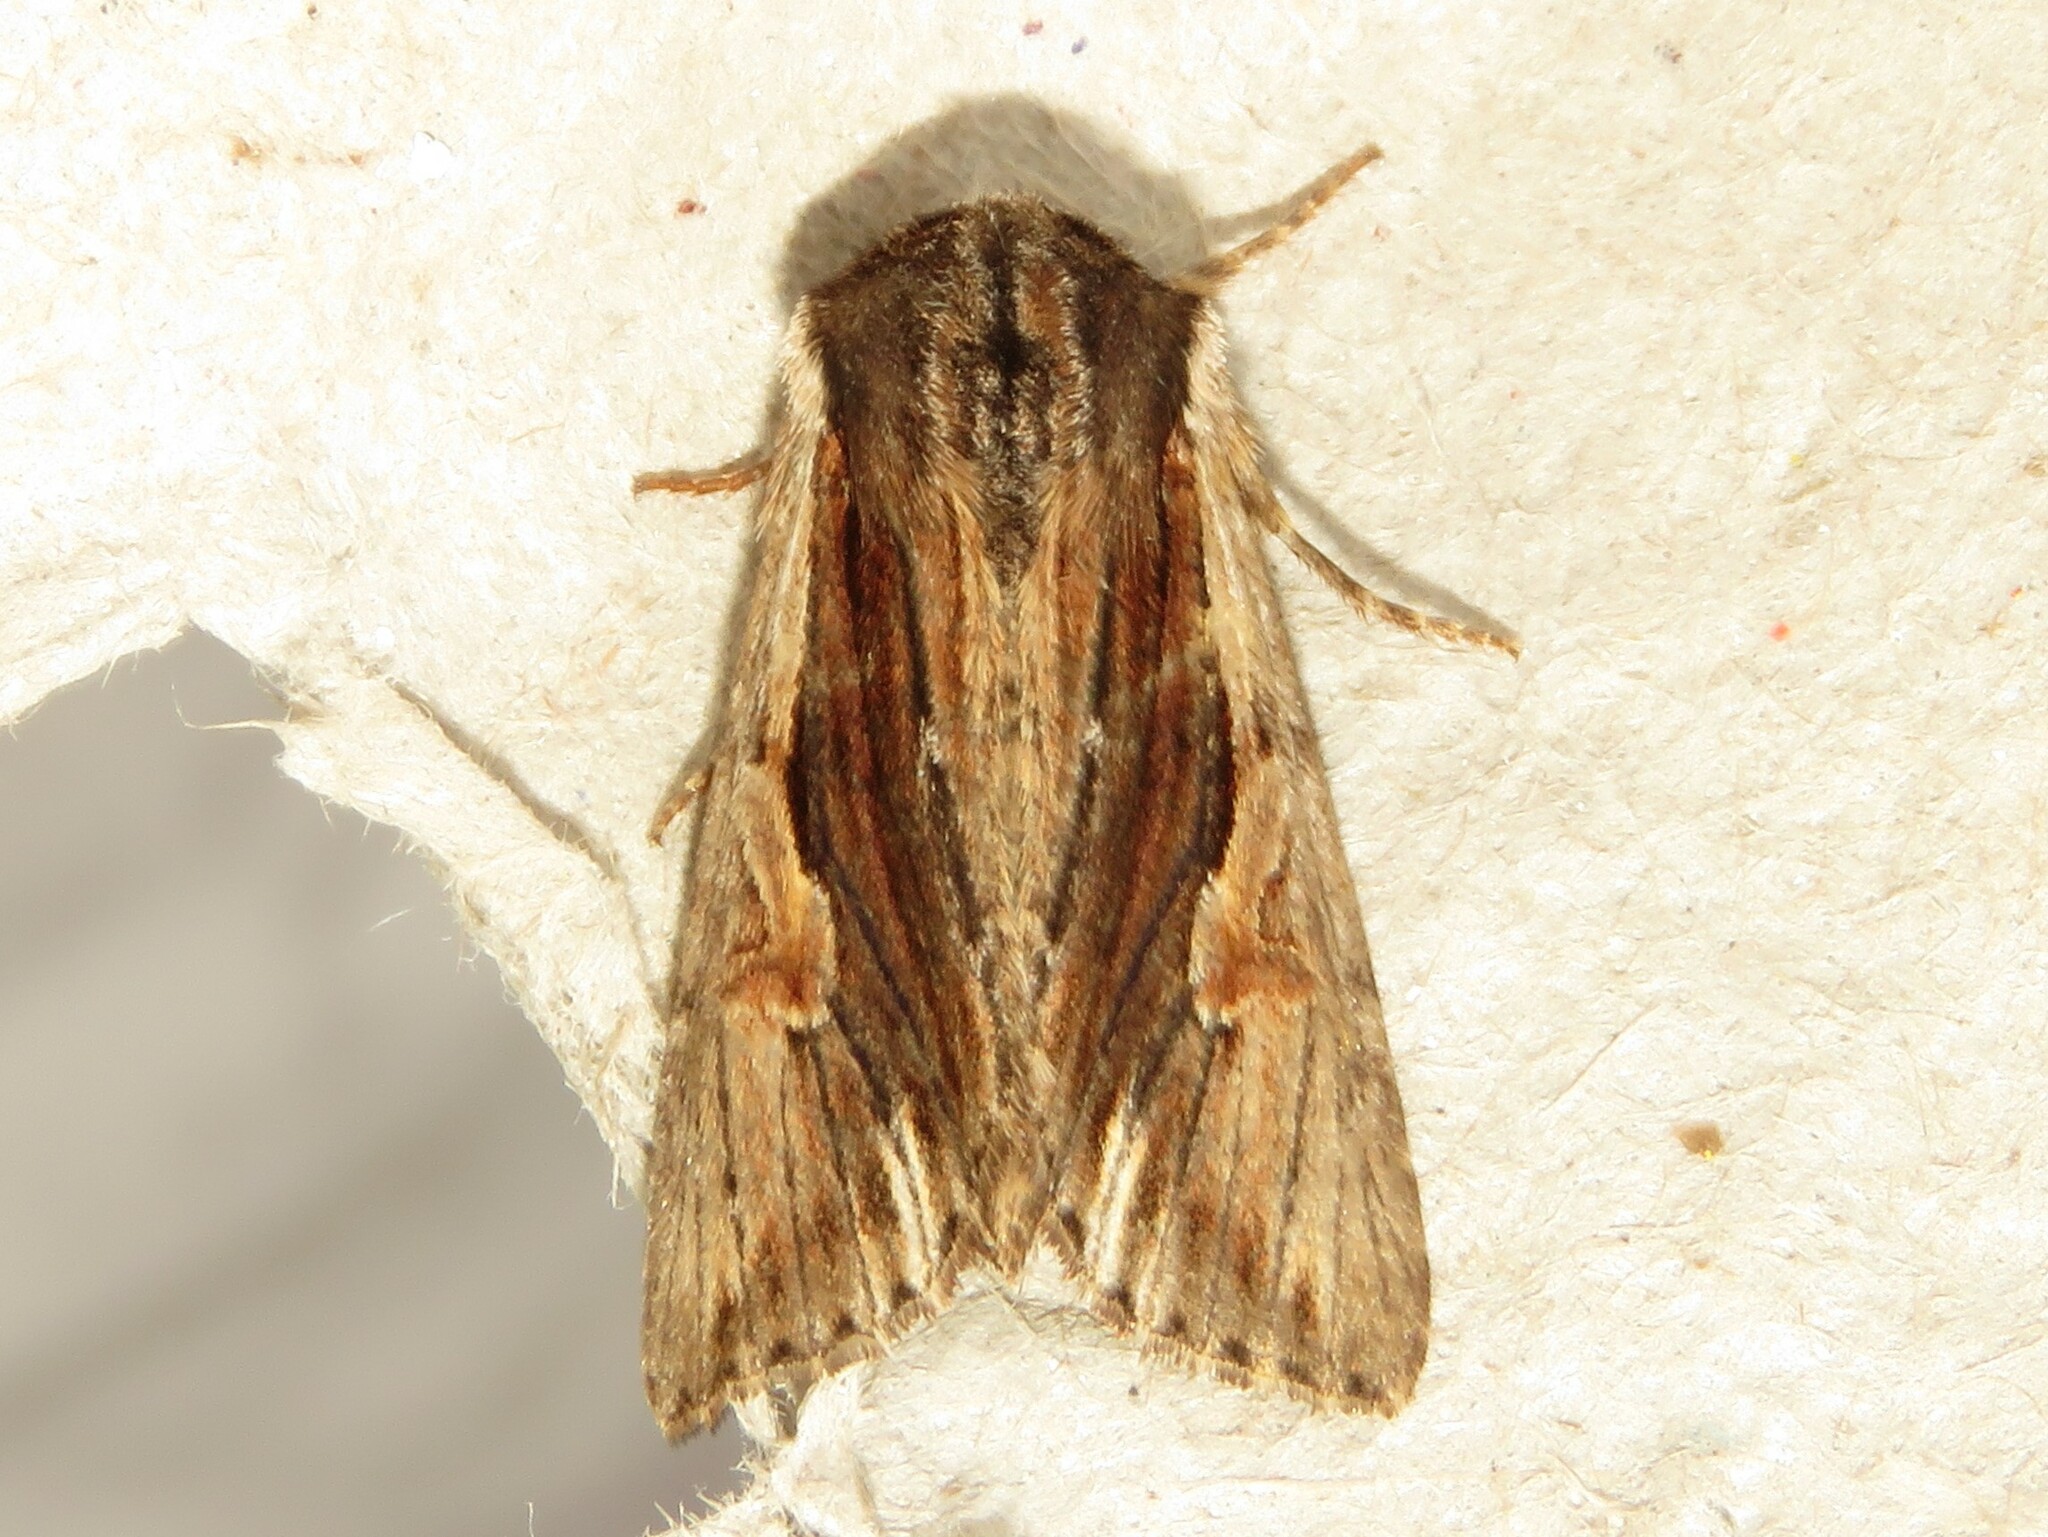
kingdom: Animalia
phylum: Arthropoda
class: Insecta
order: Lepidoptera
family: Noctuidae
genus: Achatia
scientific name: Achatia evicta
